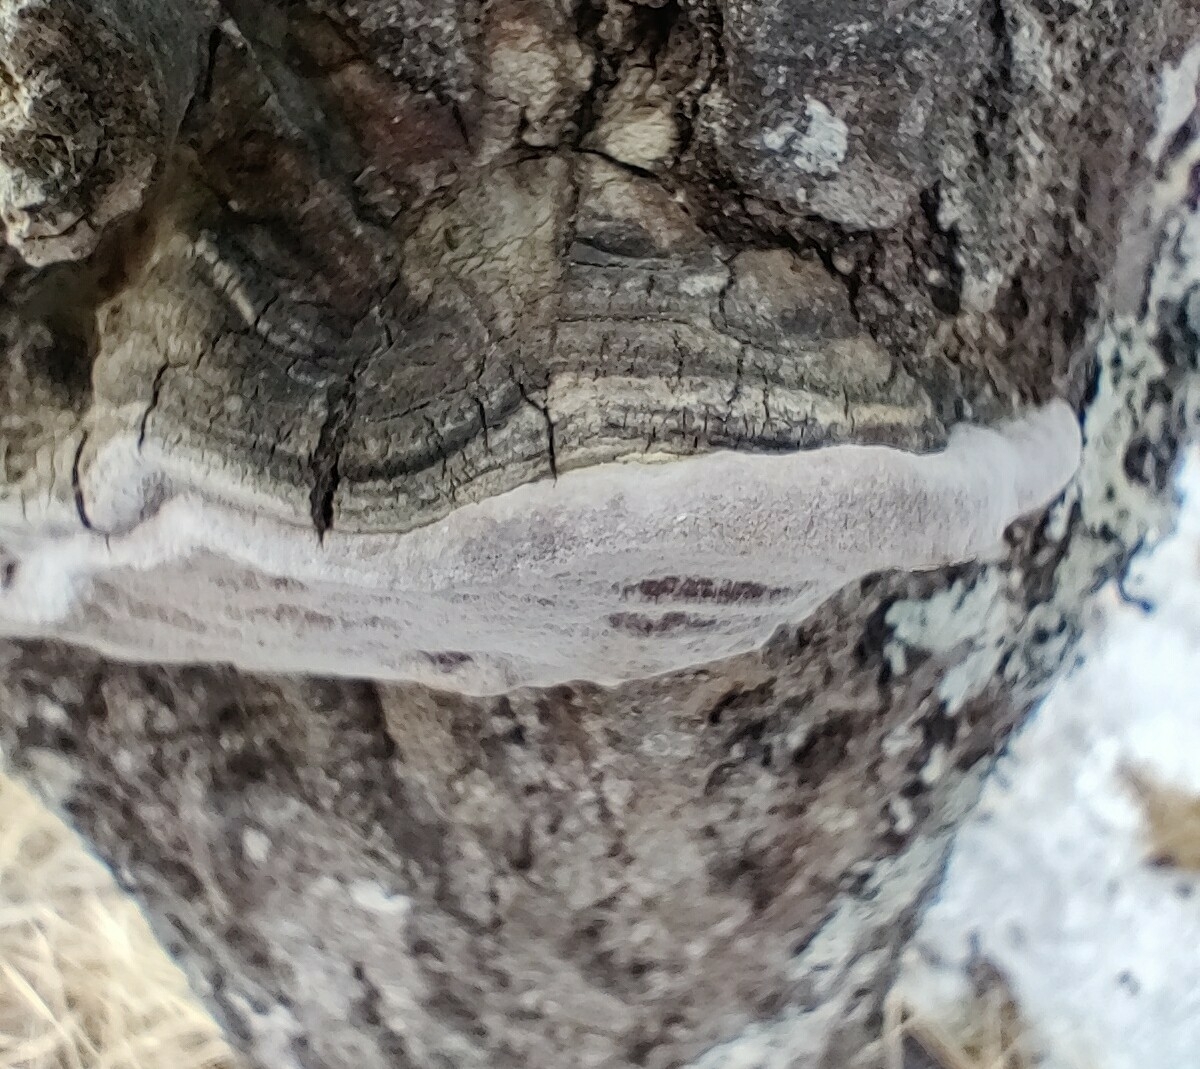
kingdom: Fungi
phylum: Basidiomycota
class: Agaricomycetes
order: Hymenochaetales
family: Hymenochaetaceae
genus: Phellinus
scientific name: Phellinus tremulae
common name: Aspen bracket
